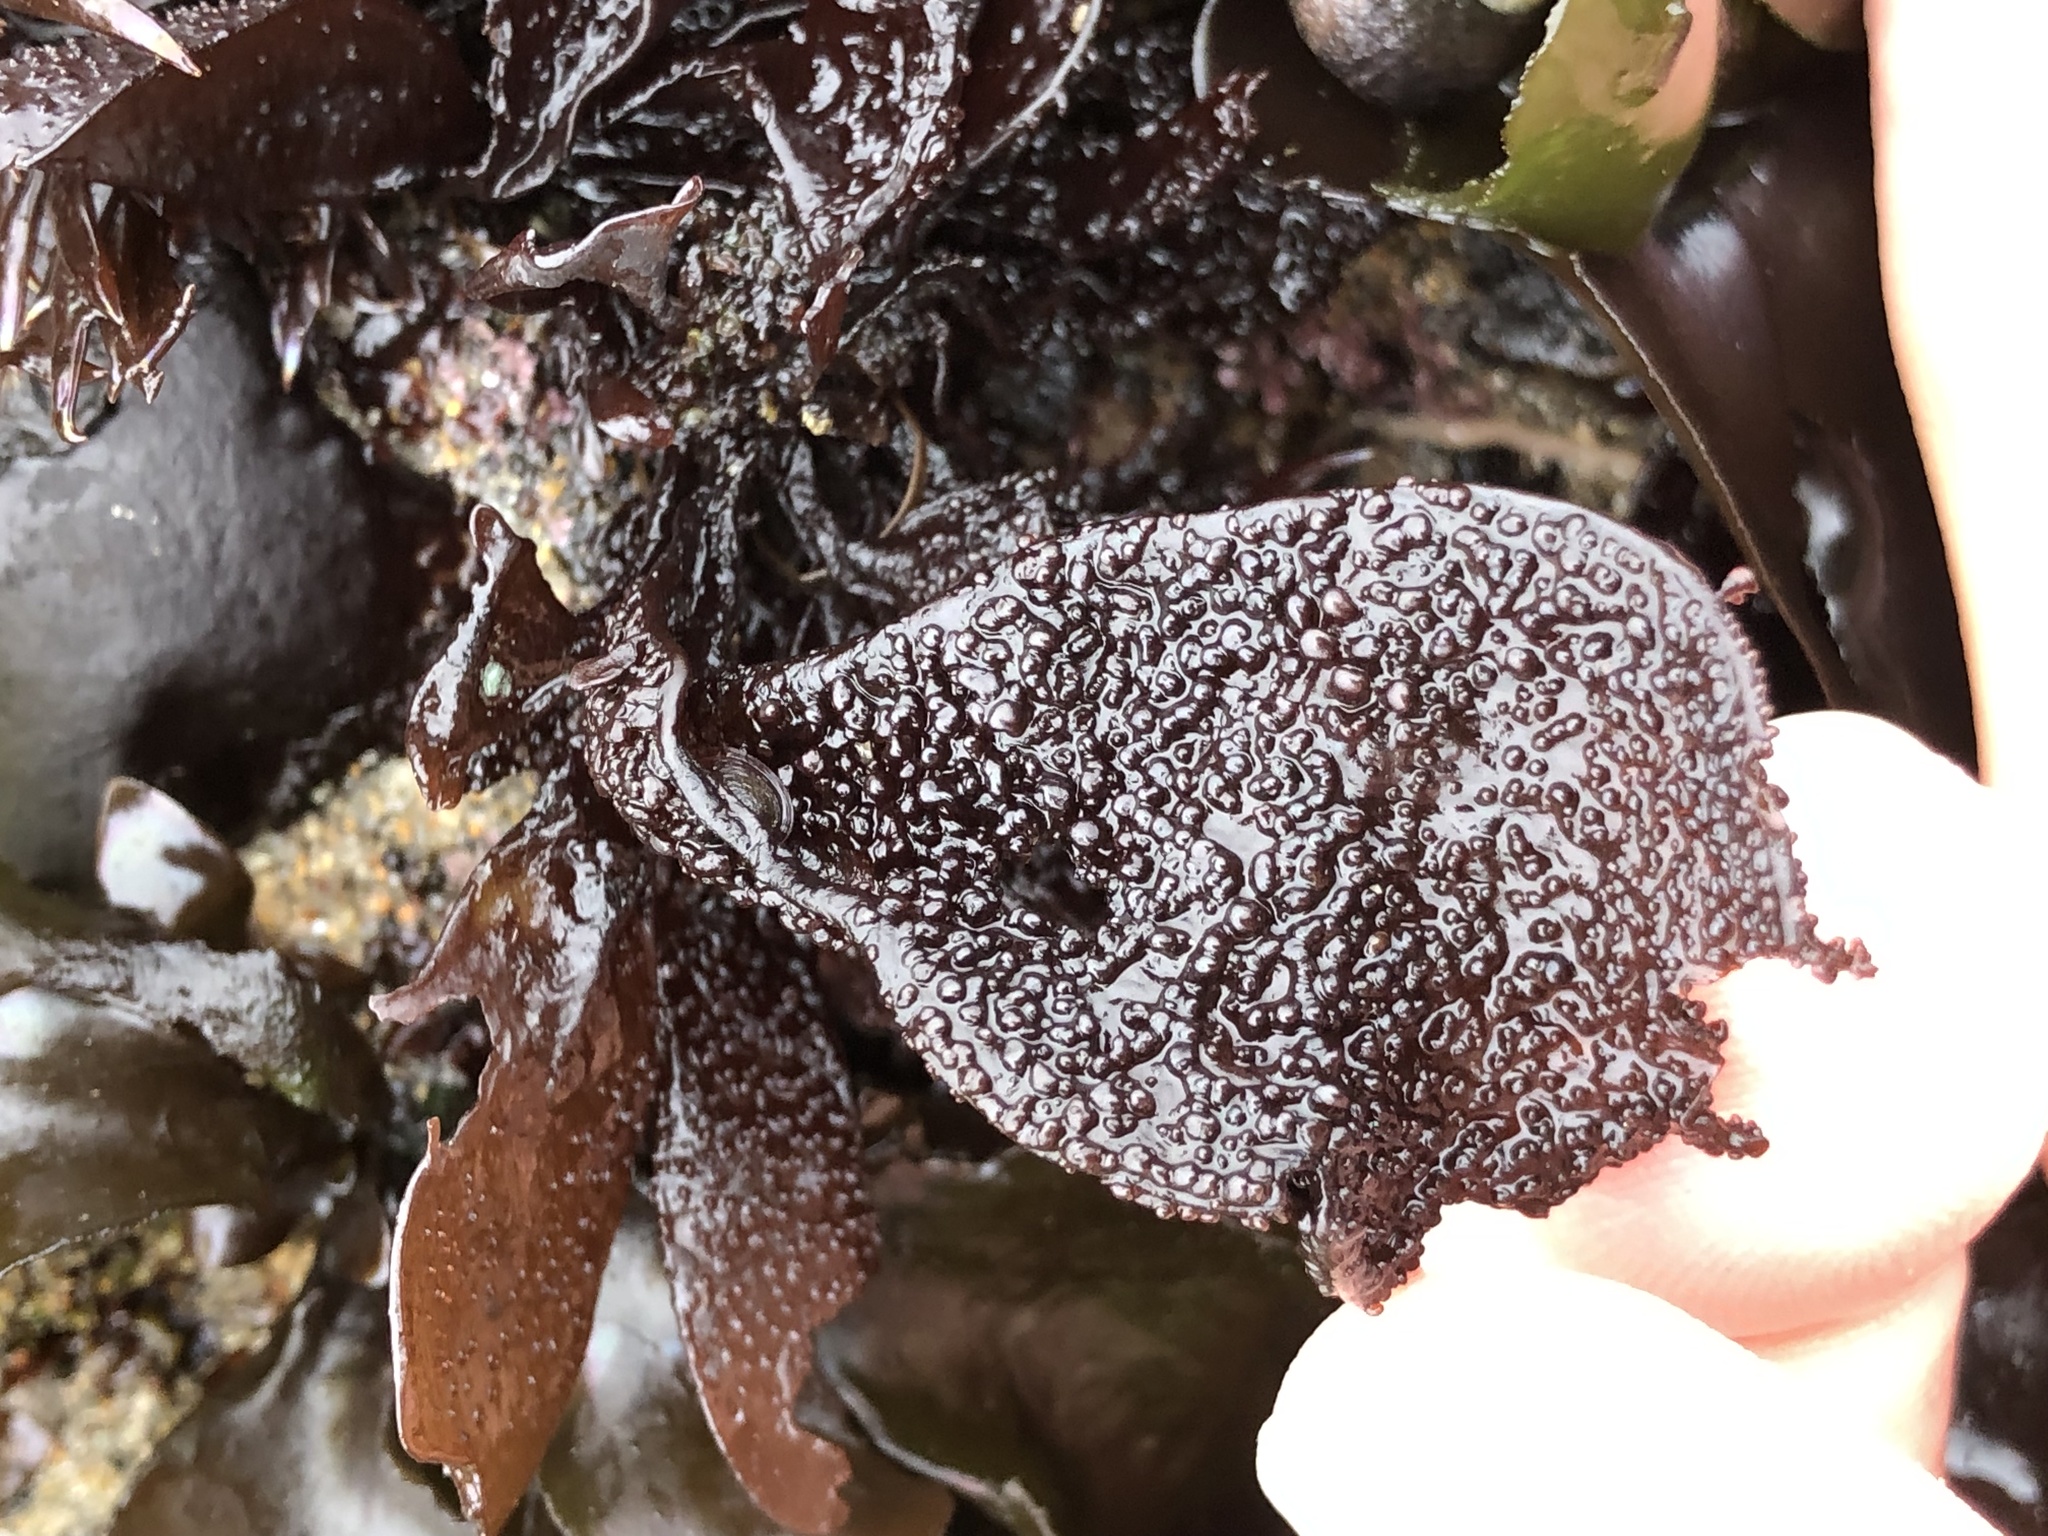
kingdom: Plantae
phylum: Rhodophyta
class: Florideophyceae
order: Gigartinales
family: Phyllophoraceae
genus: Mastocarpus
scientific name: Mastocarpus papillatus
